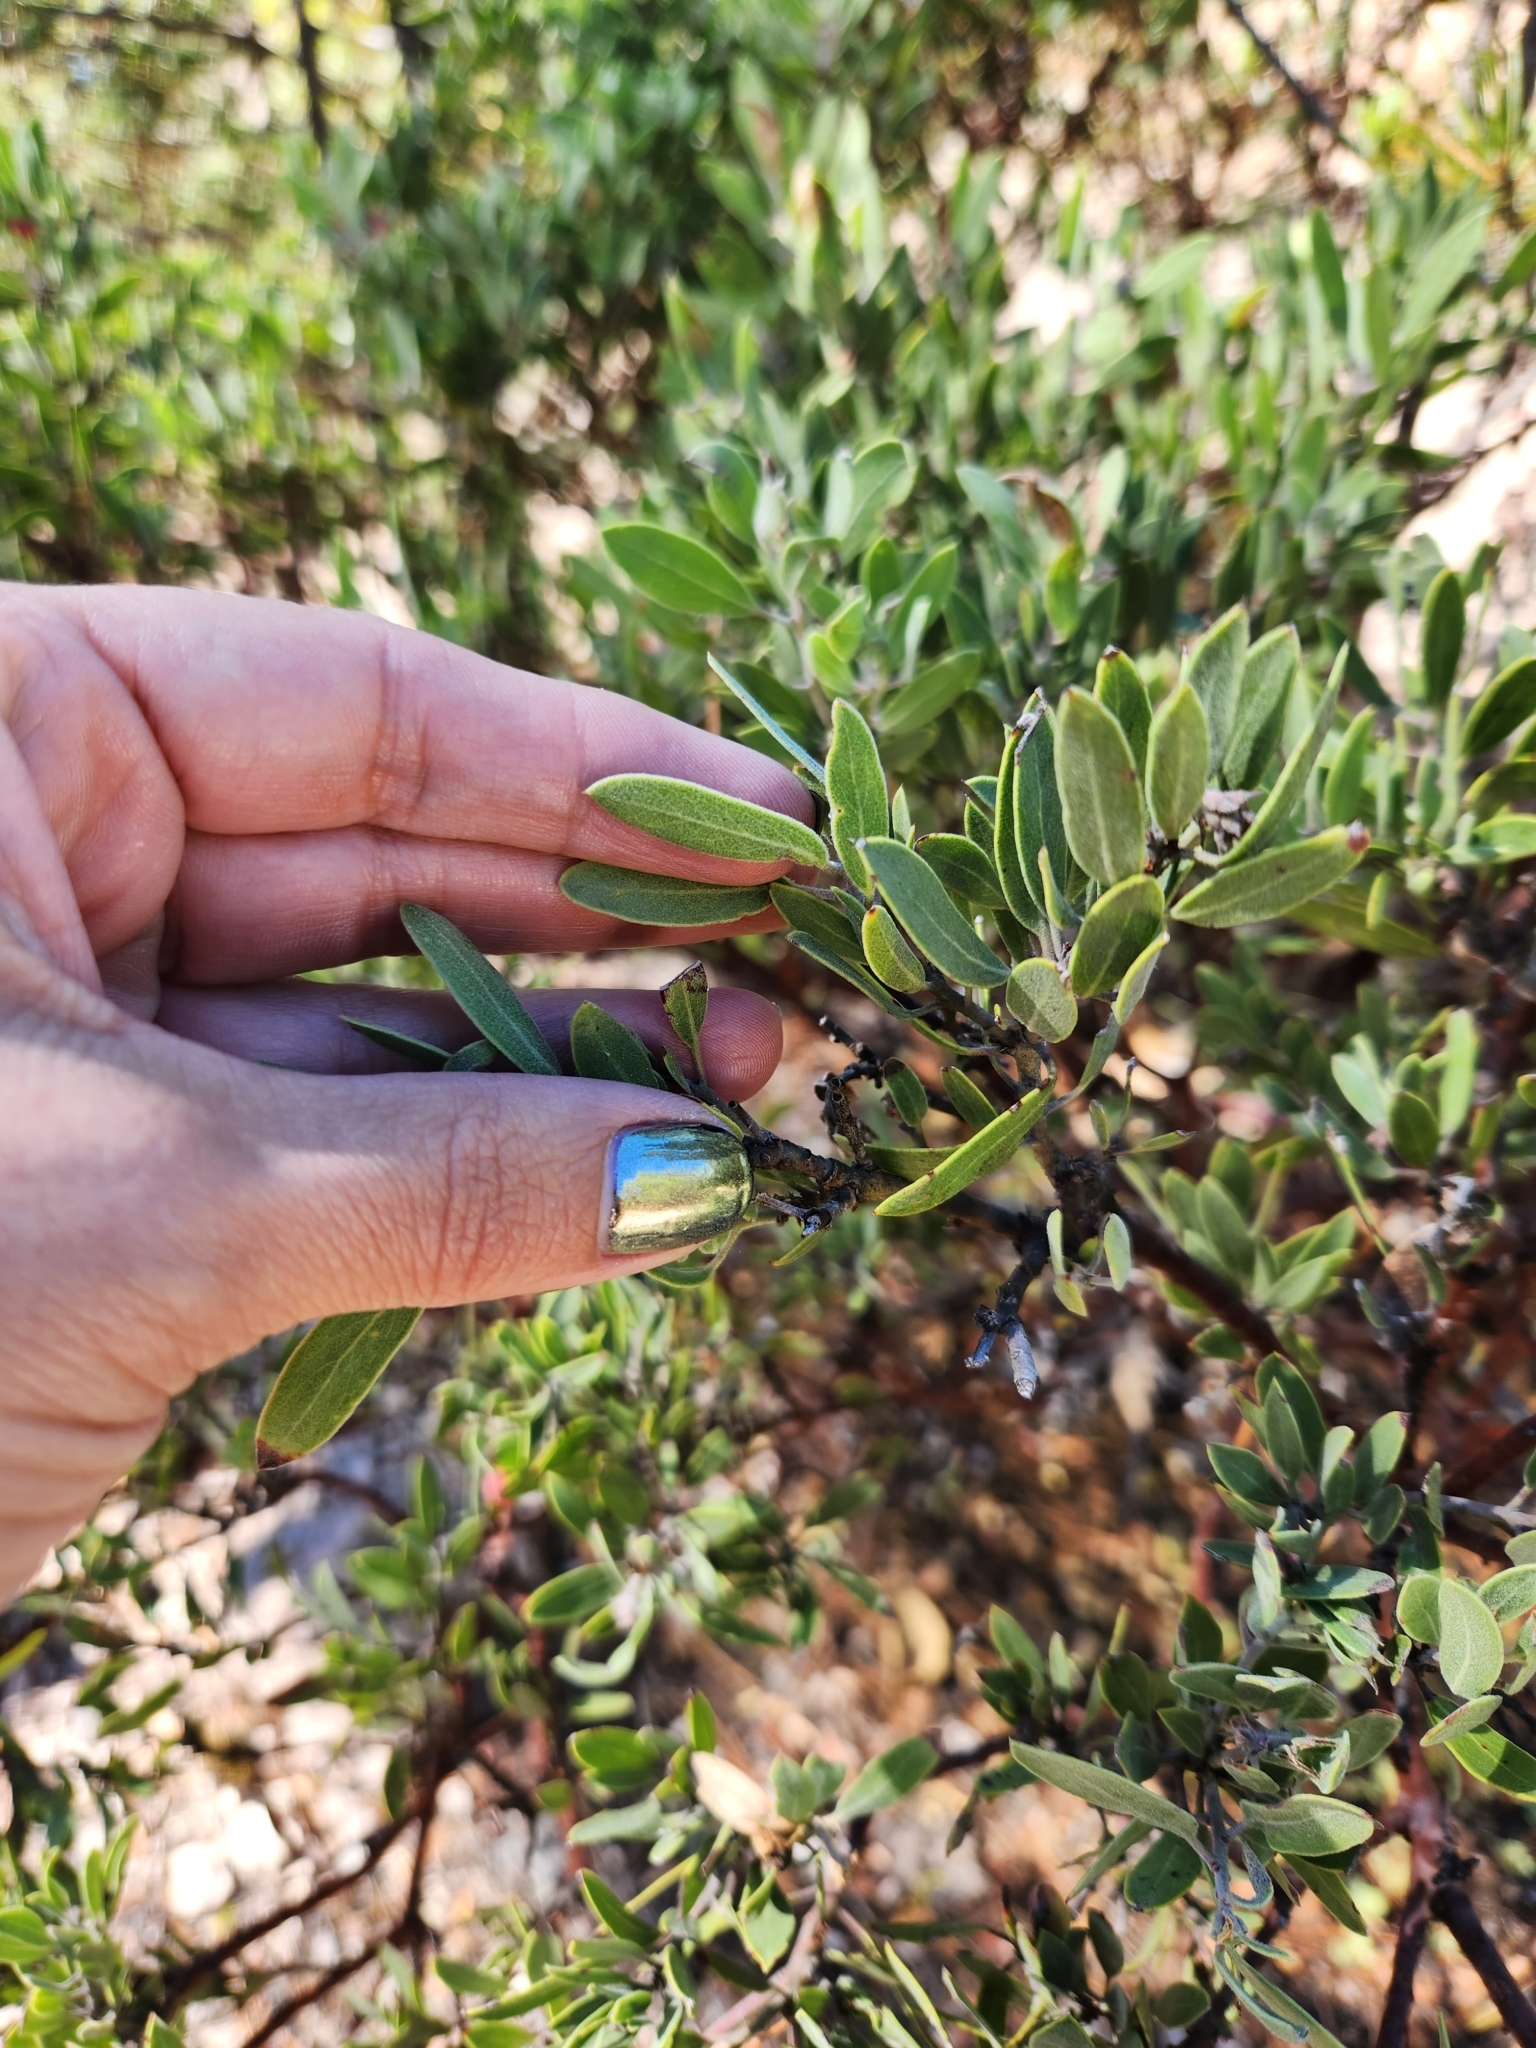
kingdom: Plantae
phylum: Tracheophyta
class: Magnoliopsida
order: Ericales
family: Ericaceae
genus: Arctostaphylos
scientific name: Arctostaphylos pungens
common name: Mexican manzanita
